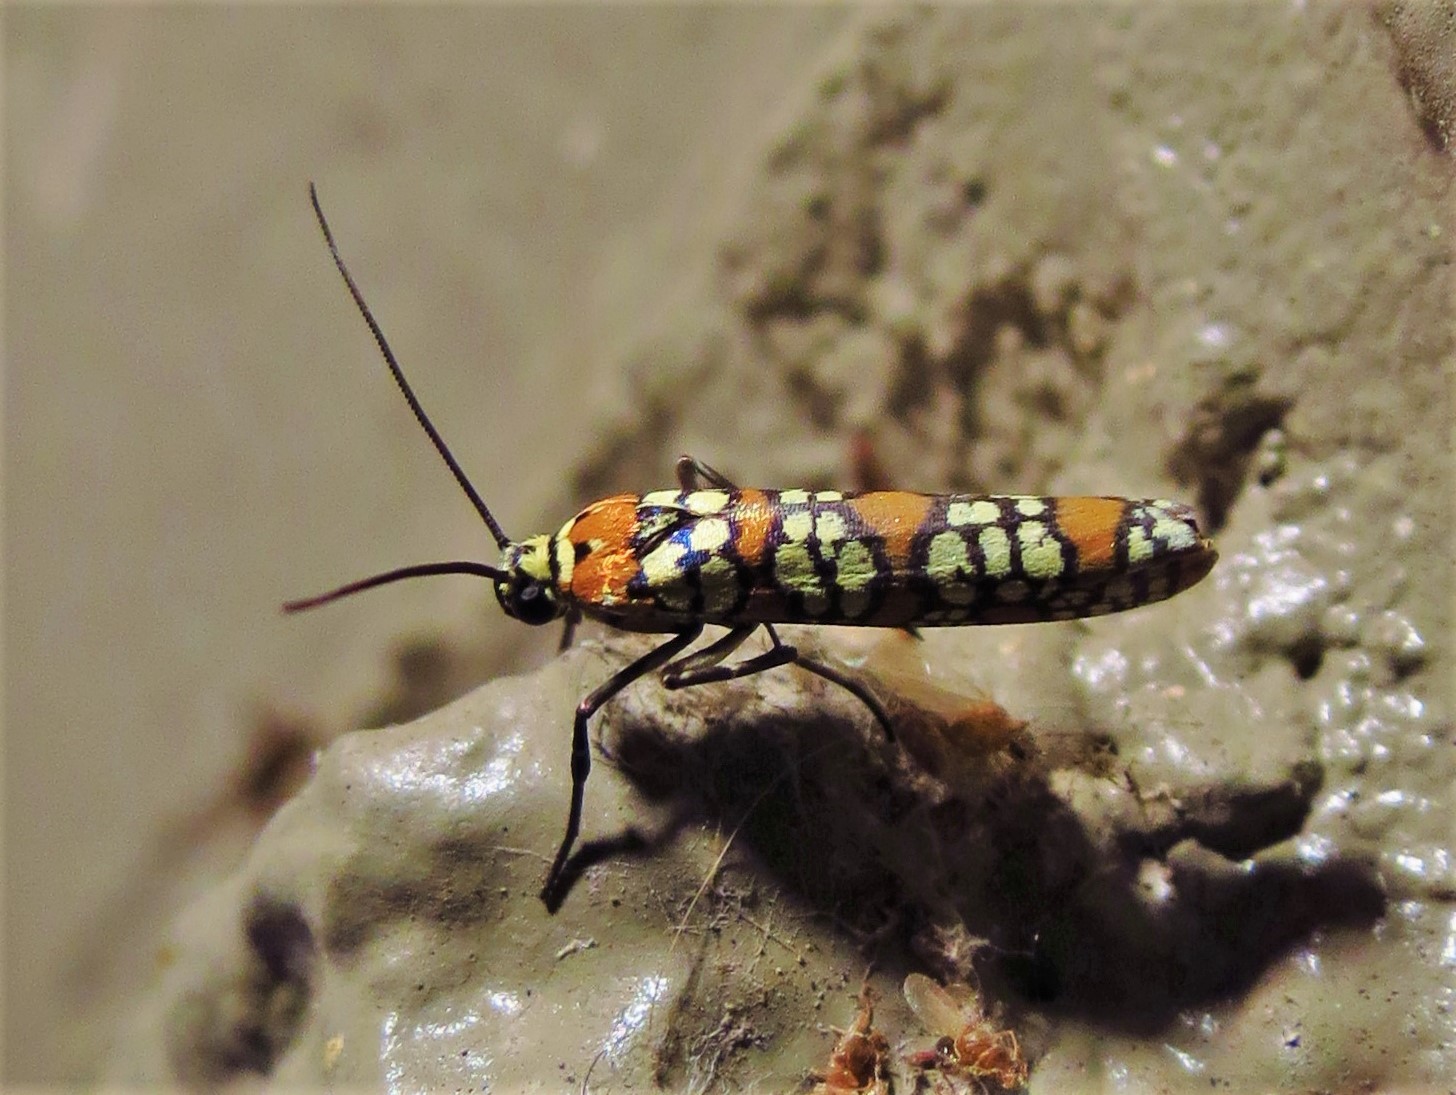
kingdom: Animalia
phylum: Arthropoda
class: Insecta
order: Lepidoptera
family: Attevidae
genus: Atteva
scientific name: Atteva punctella
